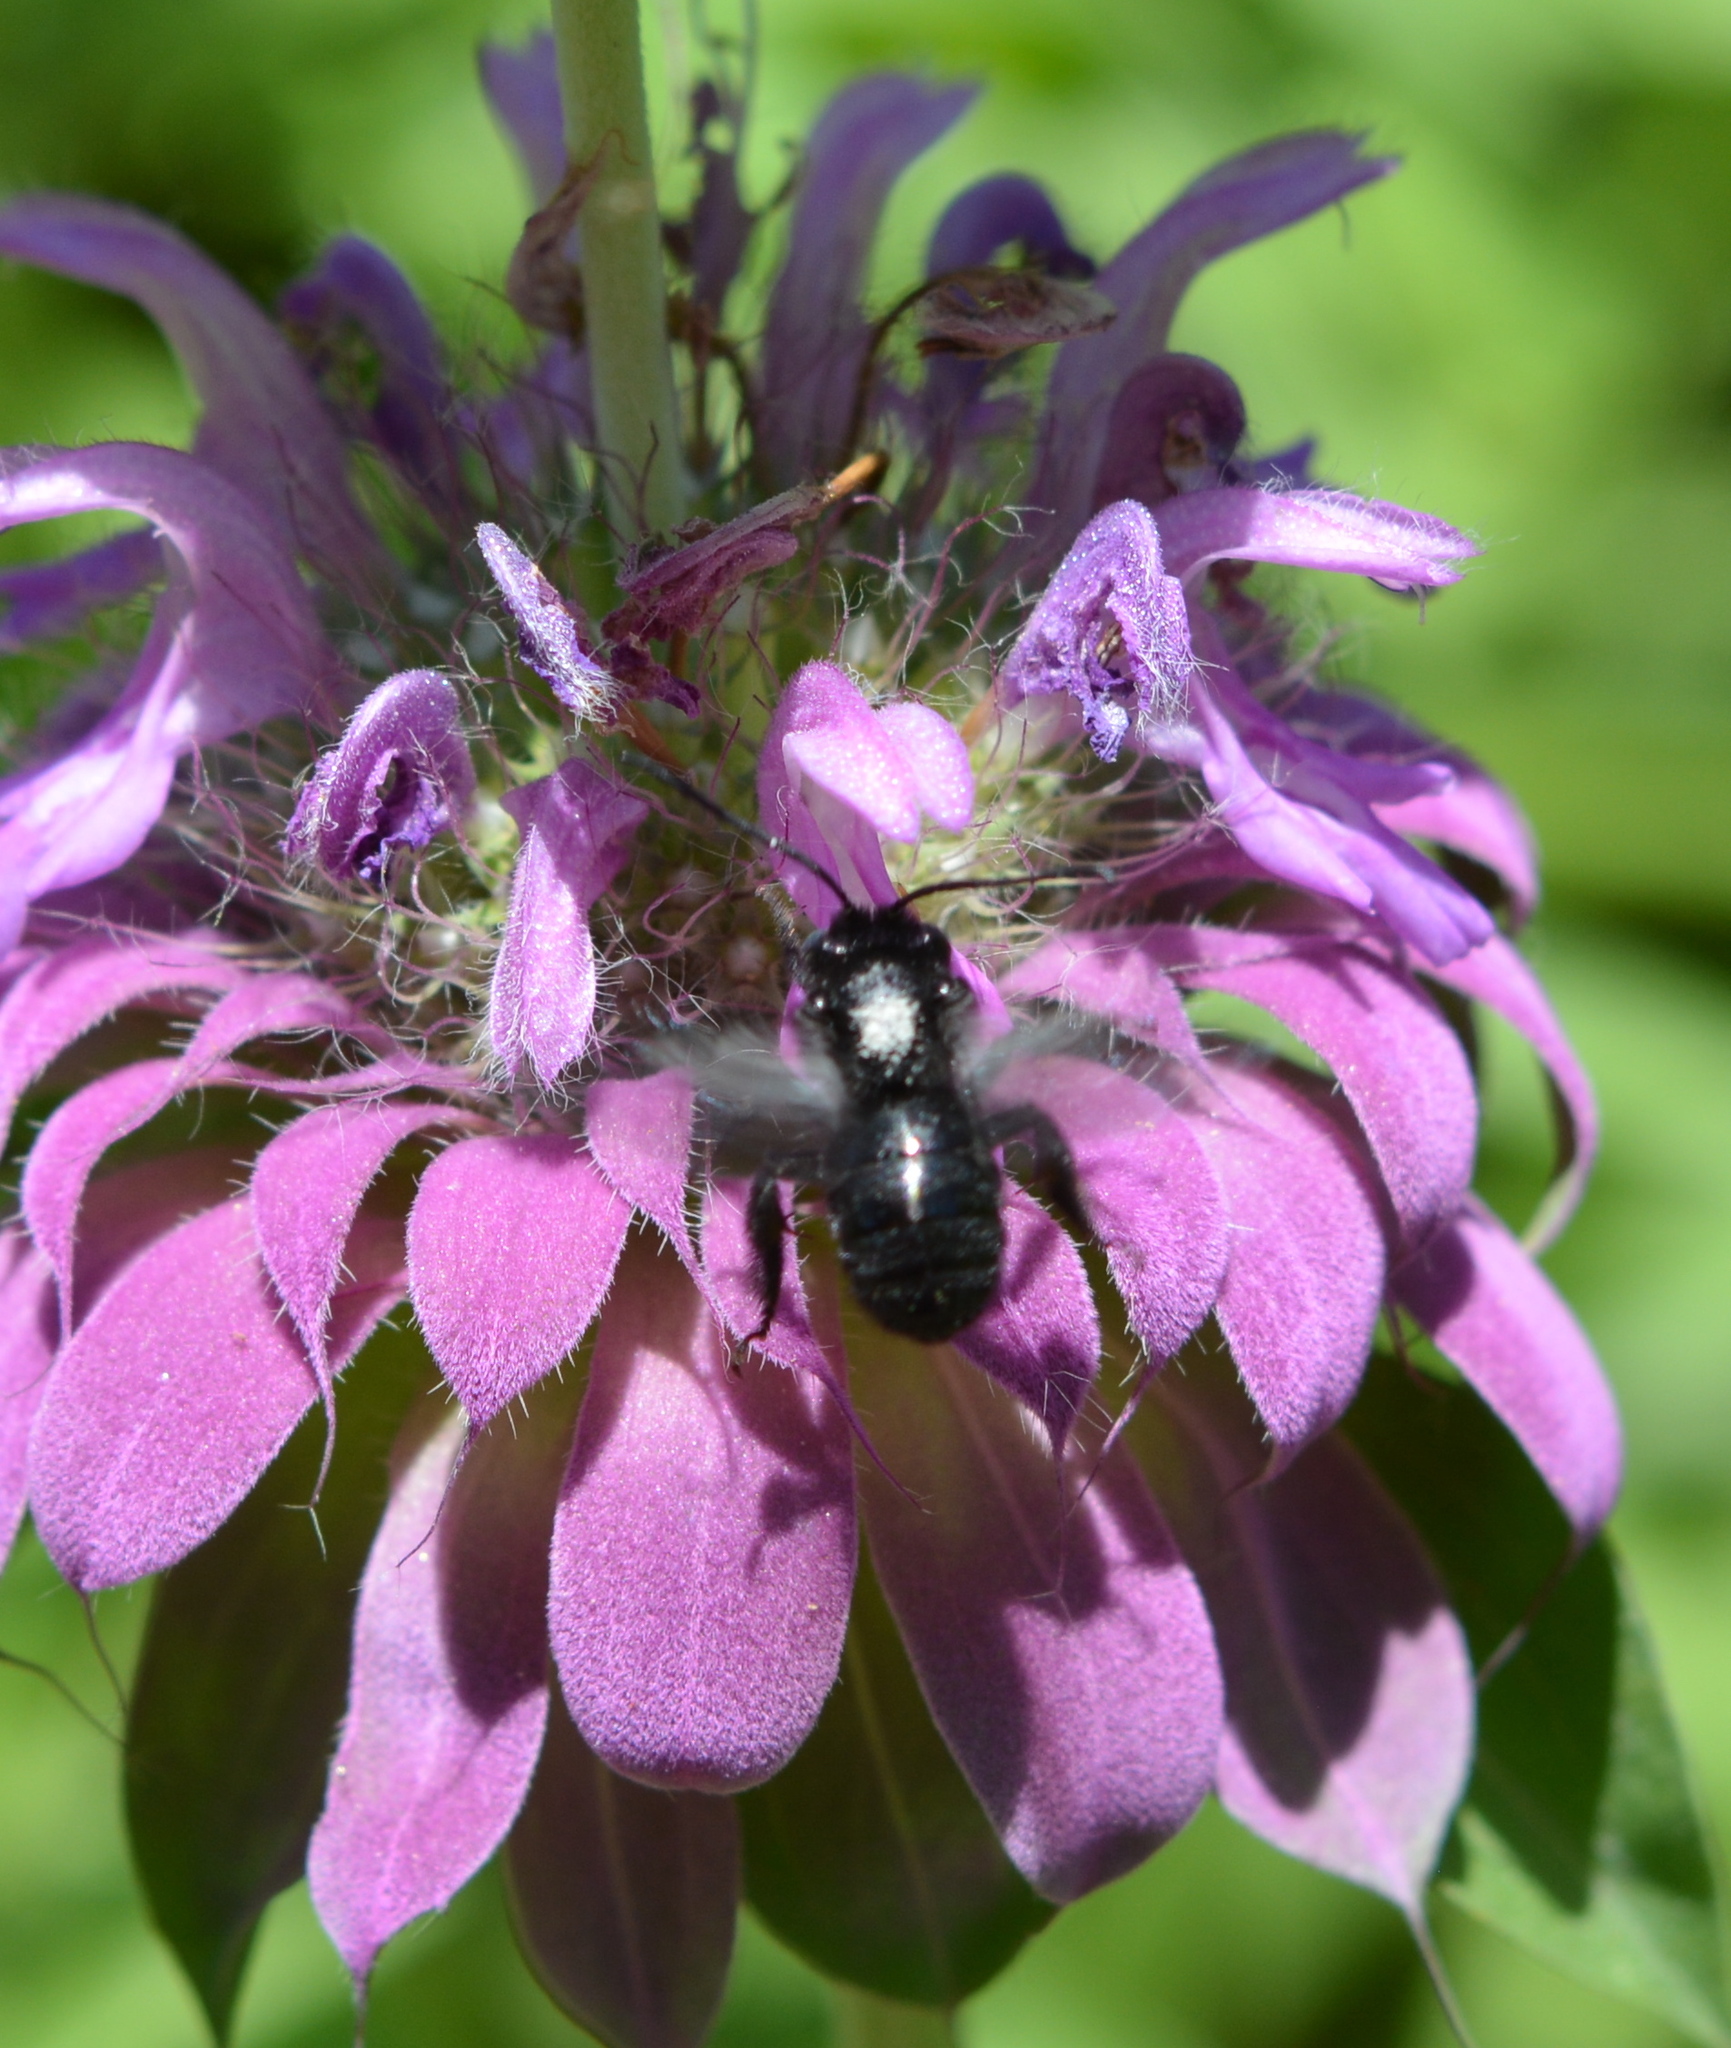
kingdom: Animalia
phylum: Arthropoda
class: Insecta
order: Hymenoptera
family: Apidae
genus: Melissodes
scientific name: Melissodes bimaculatus
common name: Two-spotted long-horned bee
